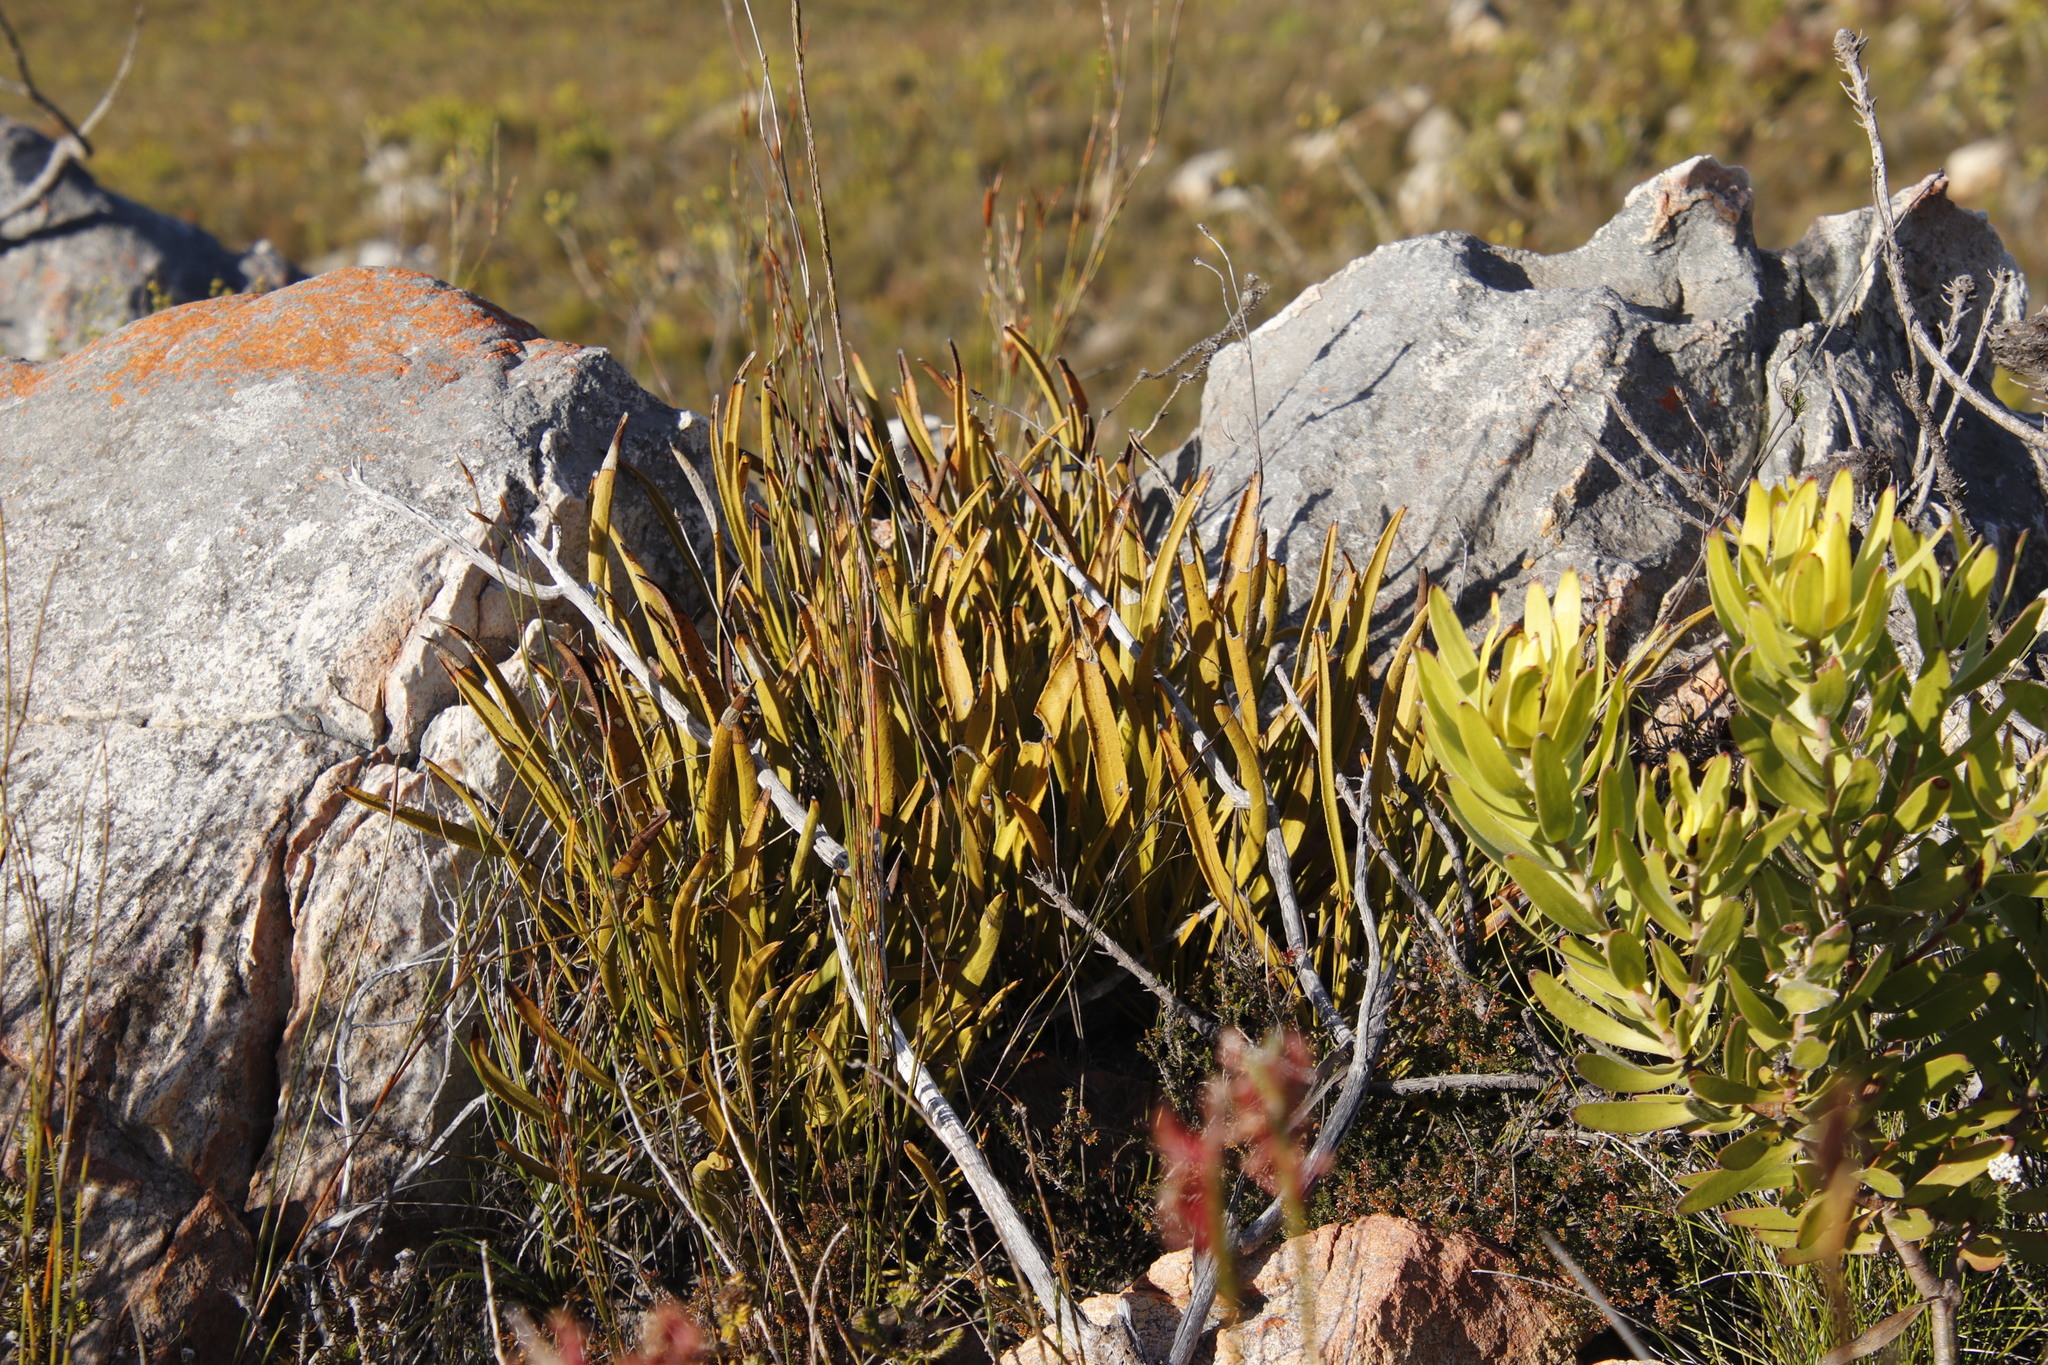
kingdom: Plantae
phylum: Tracheophyta
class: Magnoliopsida
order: Proteales
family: Proteaceae
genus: Protea
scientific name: Protea scabra
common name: Sandpaper-leaf sugarbush
